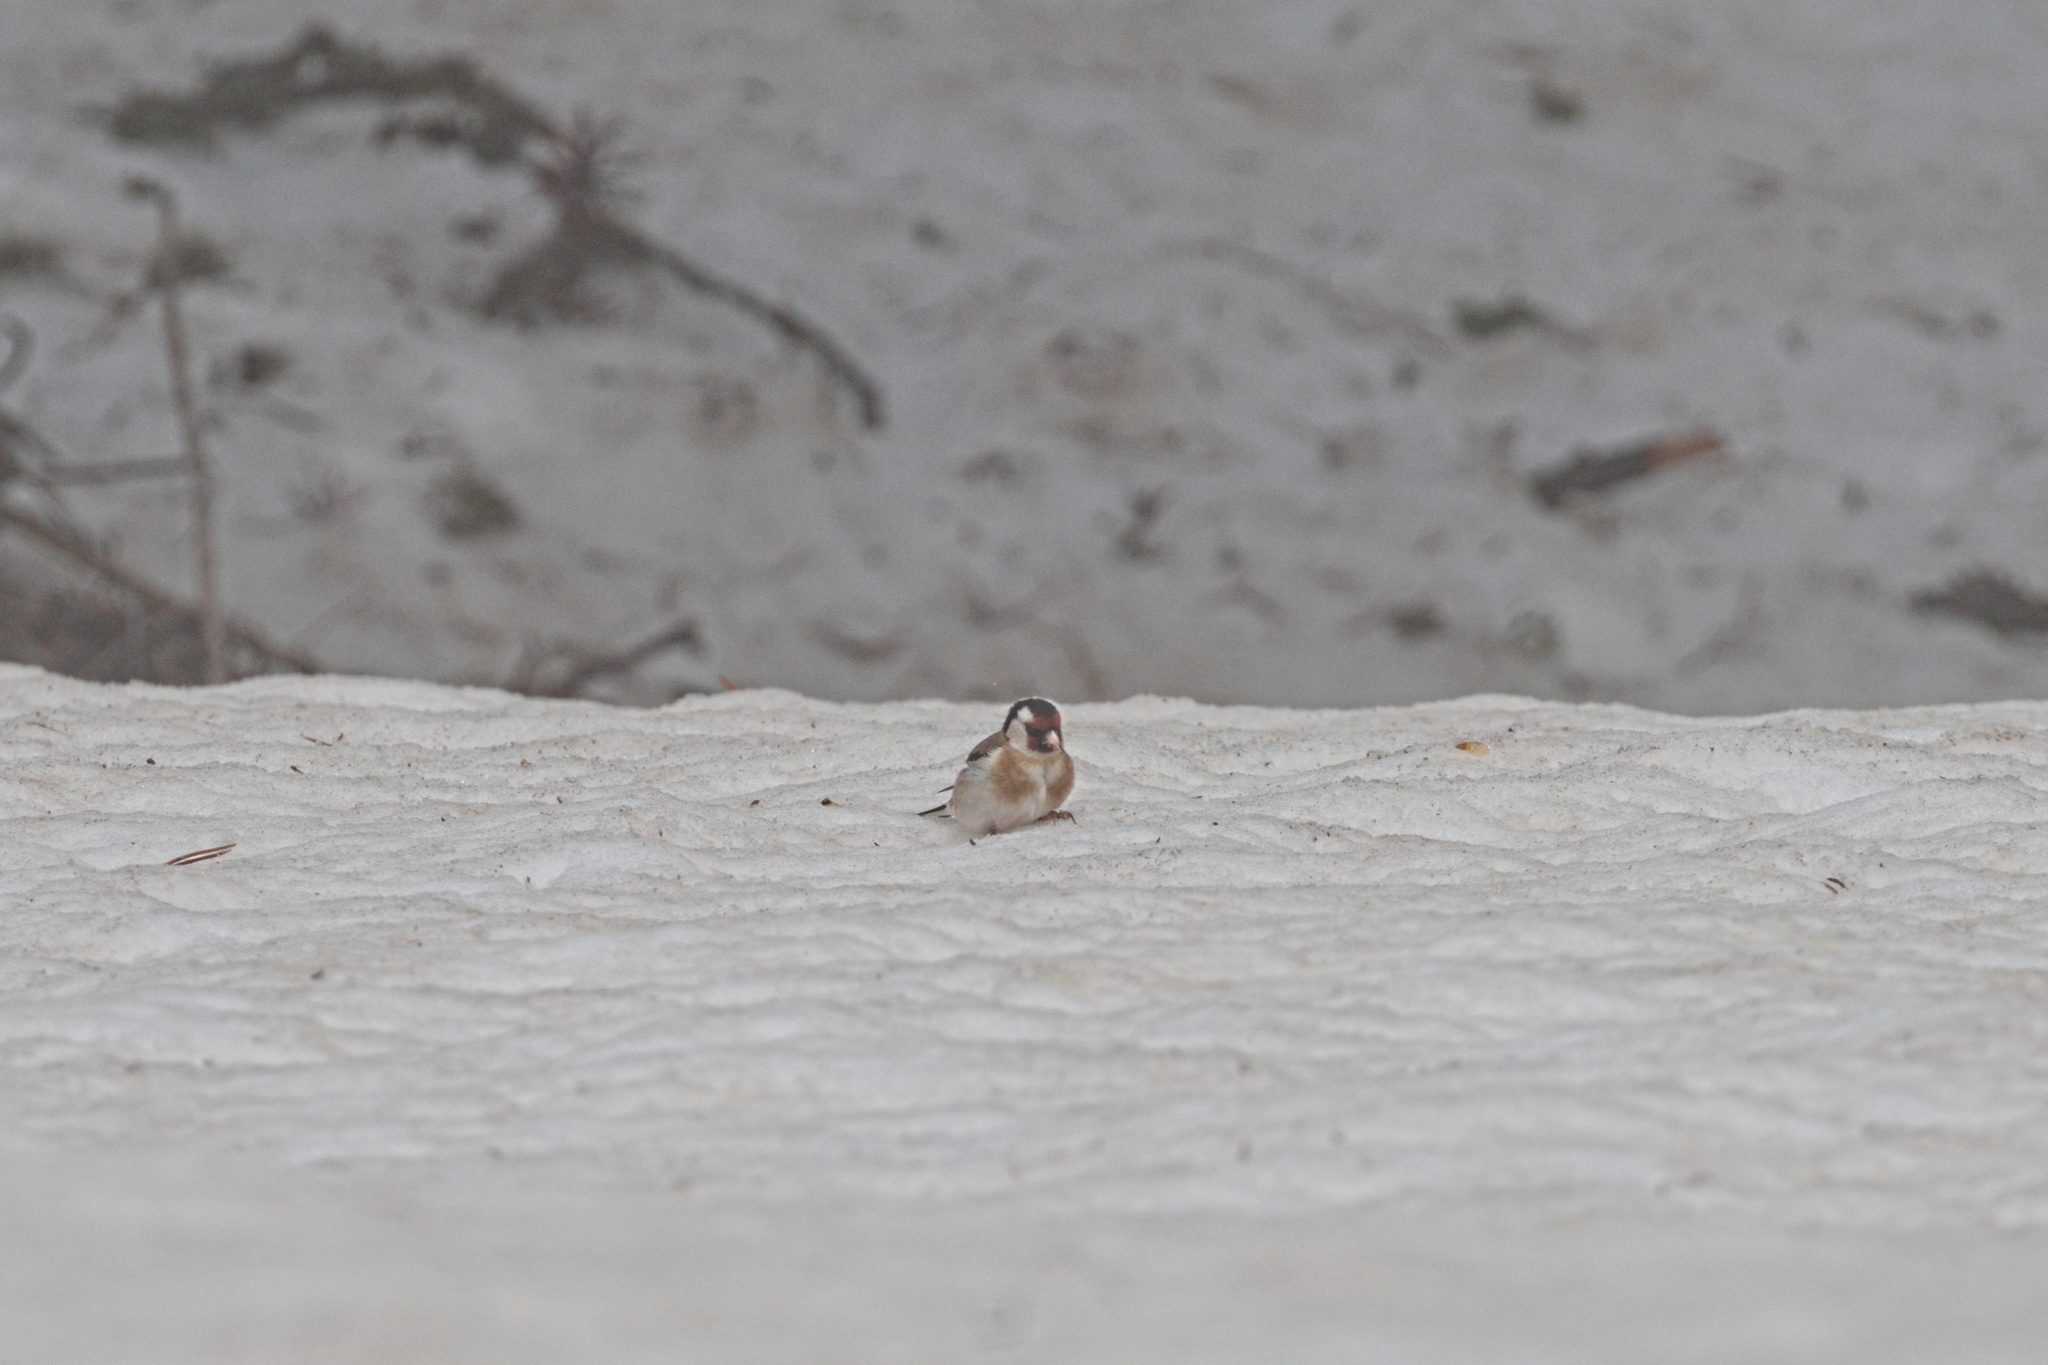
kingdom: Animalia
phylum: Chordata
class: Aves
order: Passeriformes
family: Fringillidae
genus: Carduelis
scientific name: Carduelis carduelis
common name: European goldfinch
